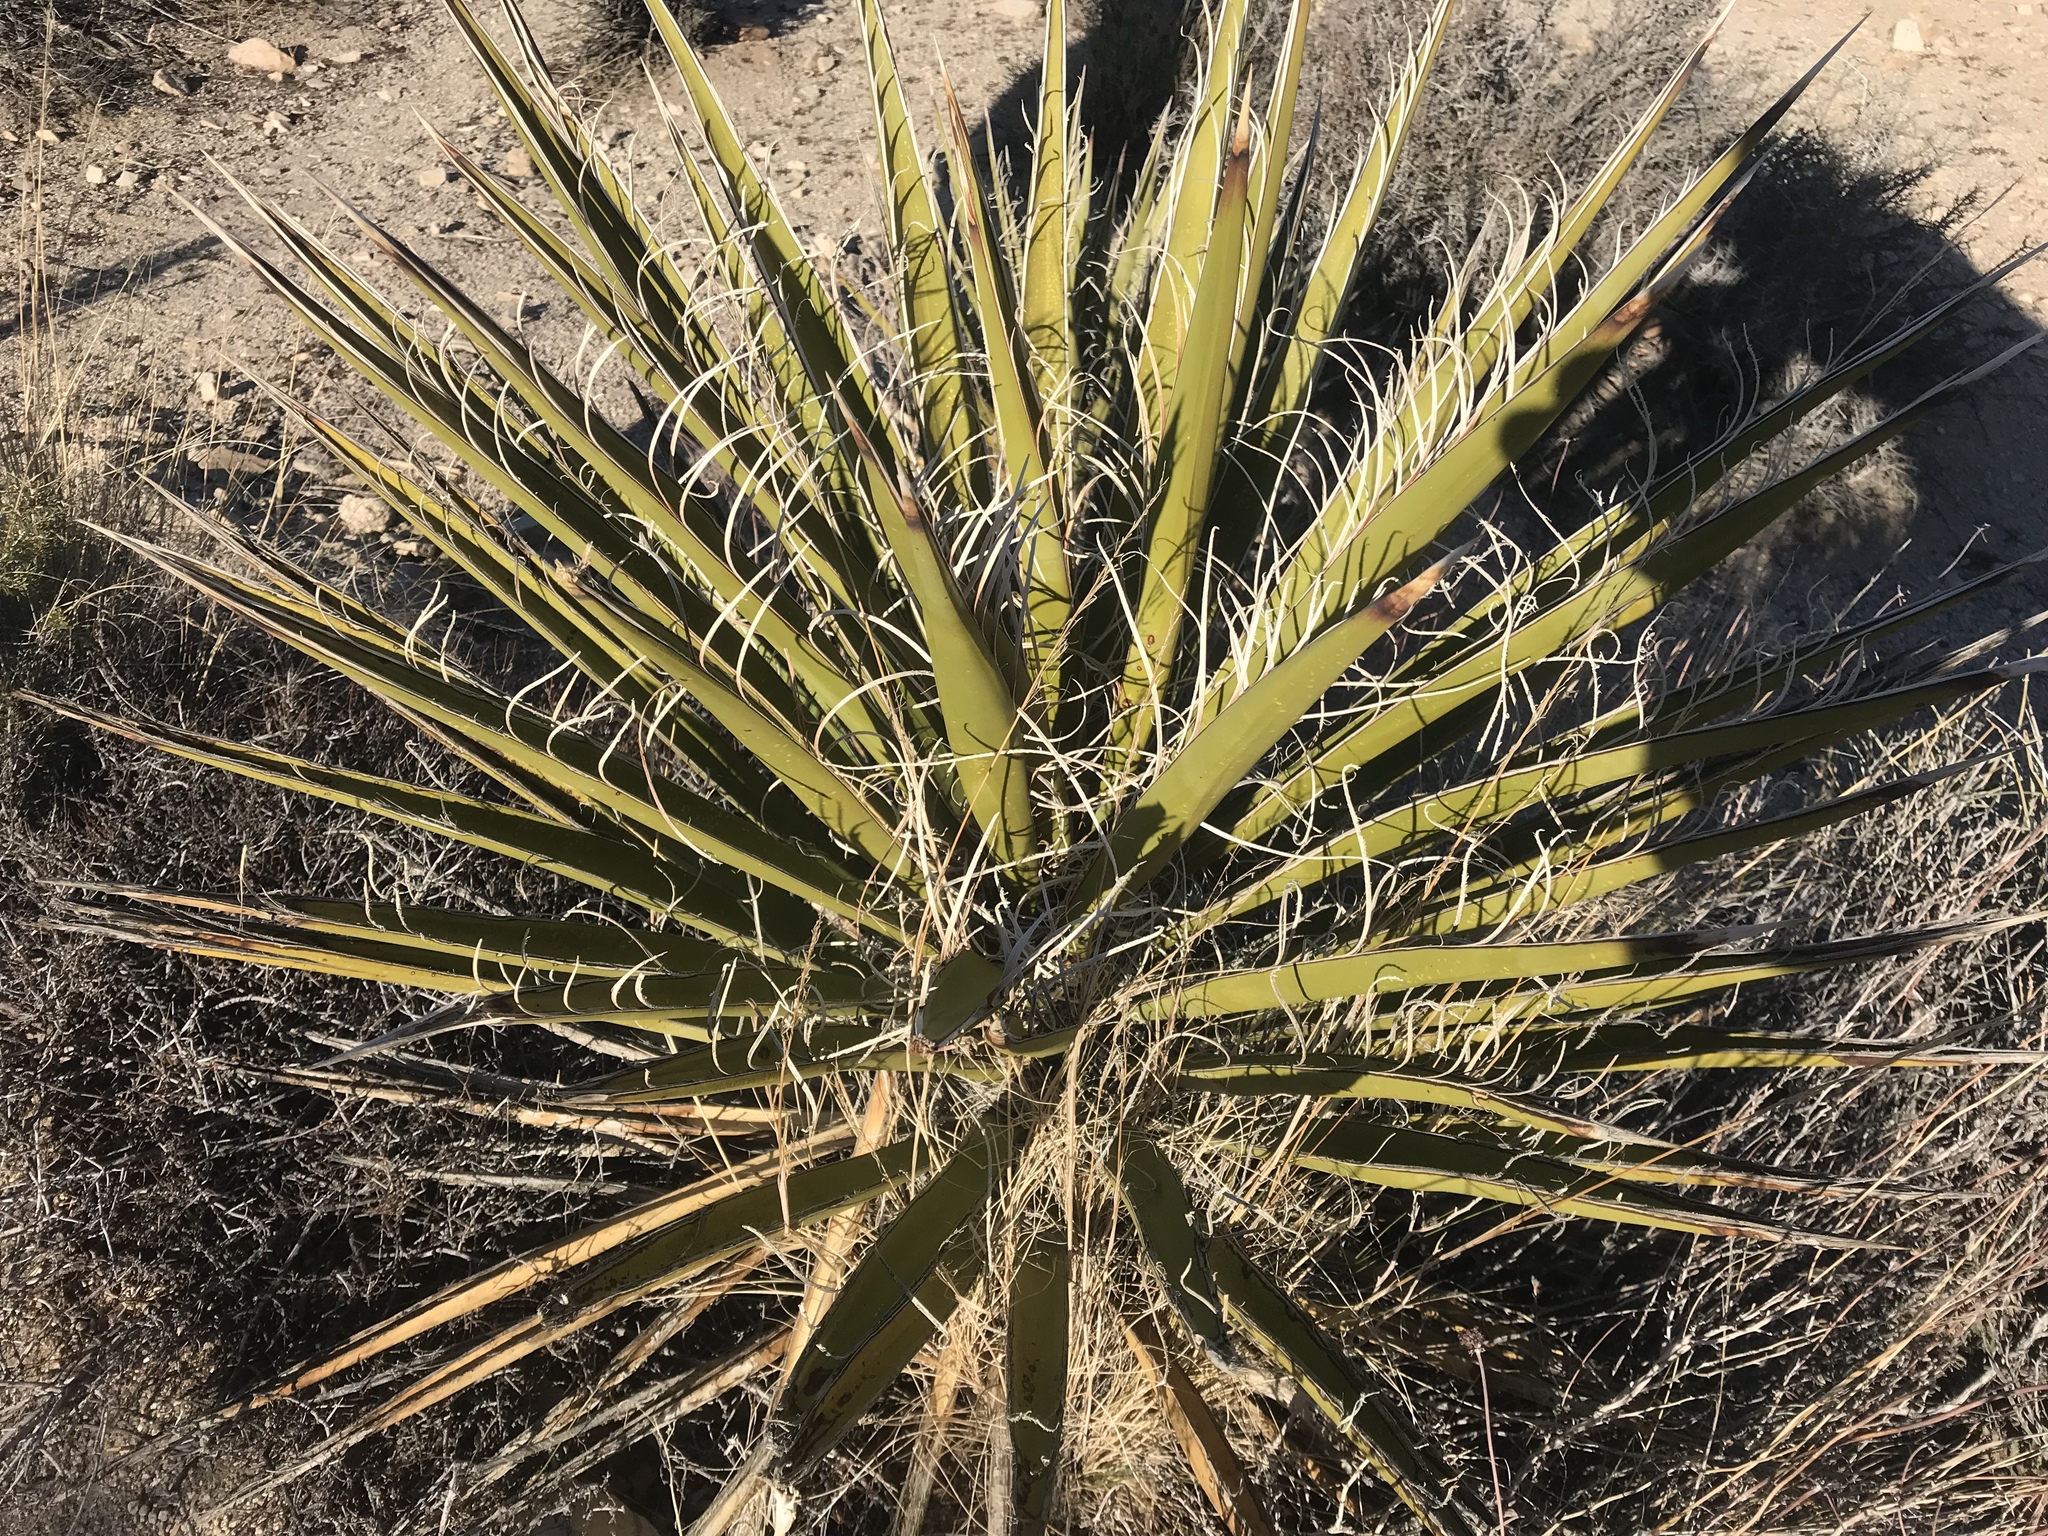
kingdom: Plantae
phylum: Tracheophyta
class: Liliopsida
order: Asparagales
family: Asparagaceae
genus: Yucca
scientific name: Yucca schidigera
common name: Mojave yucca
